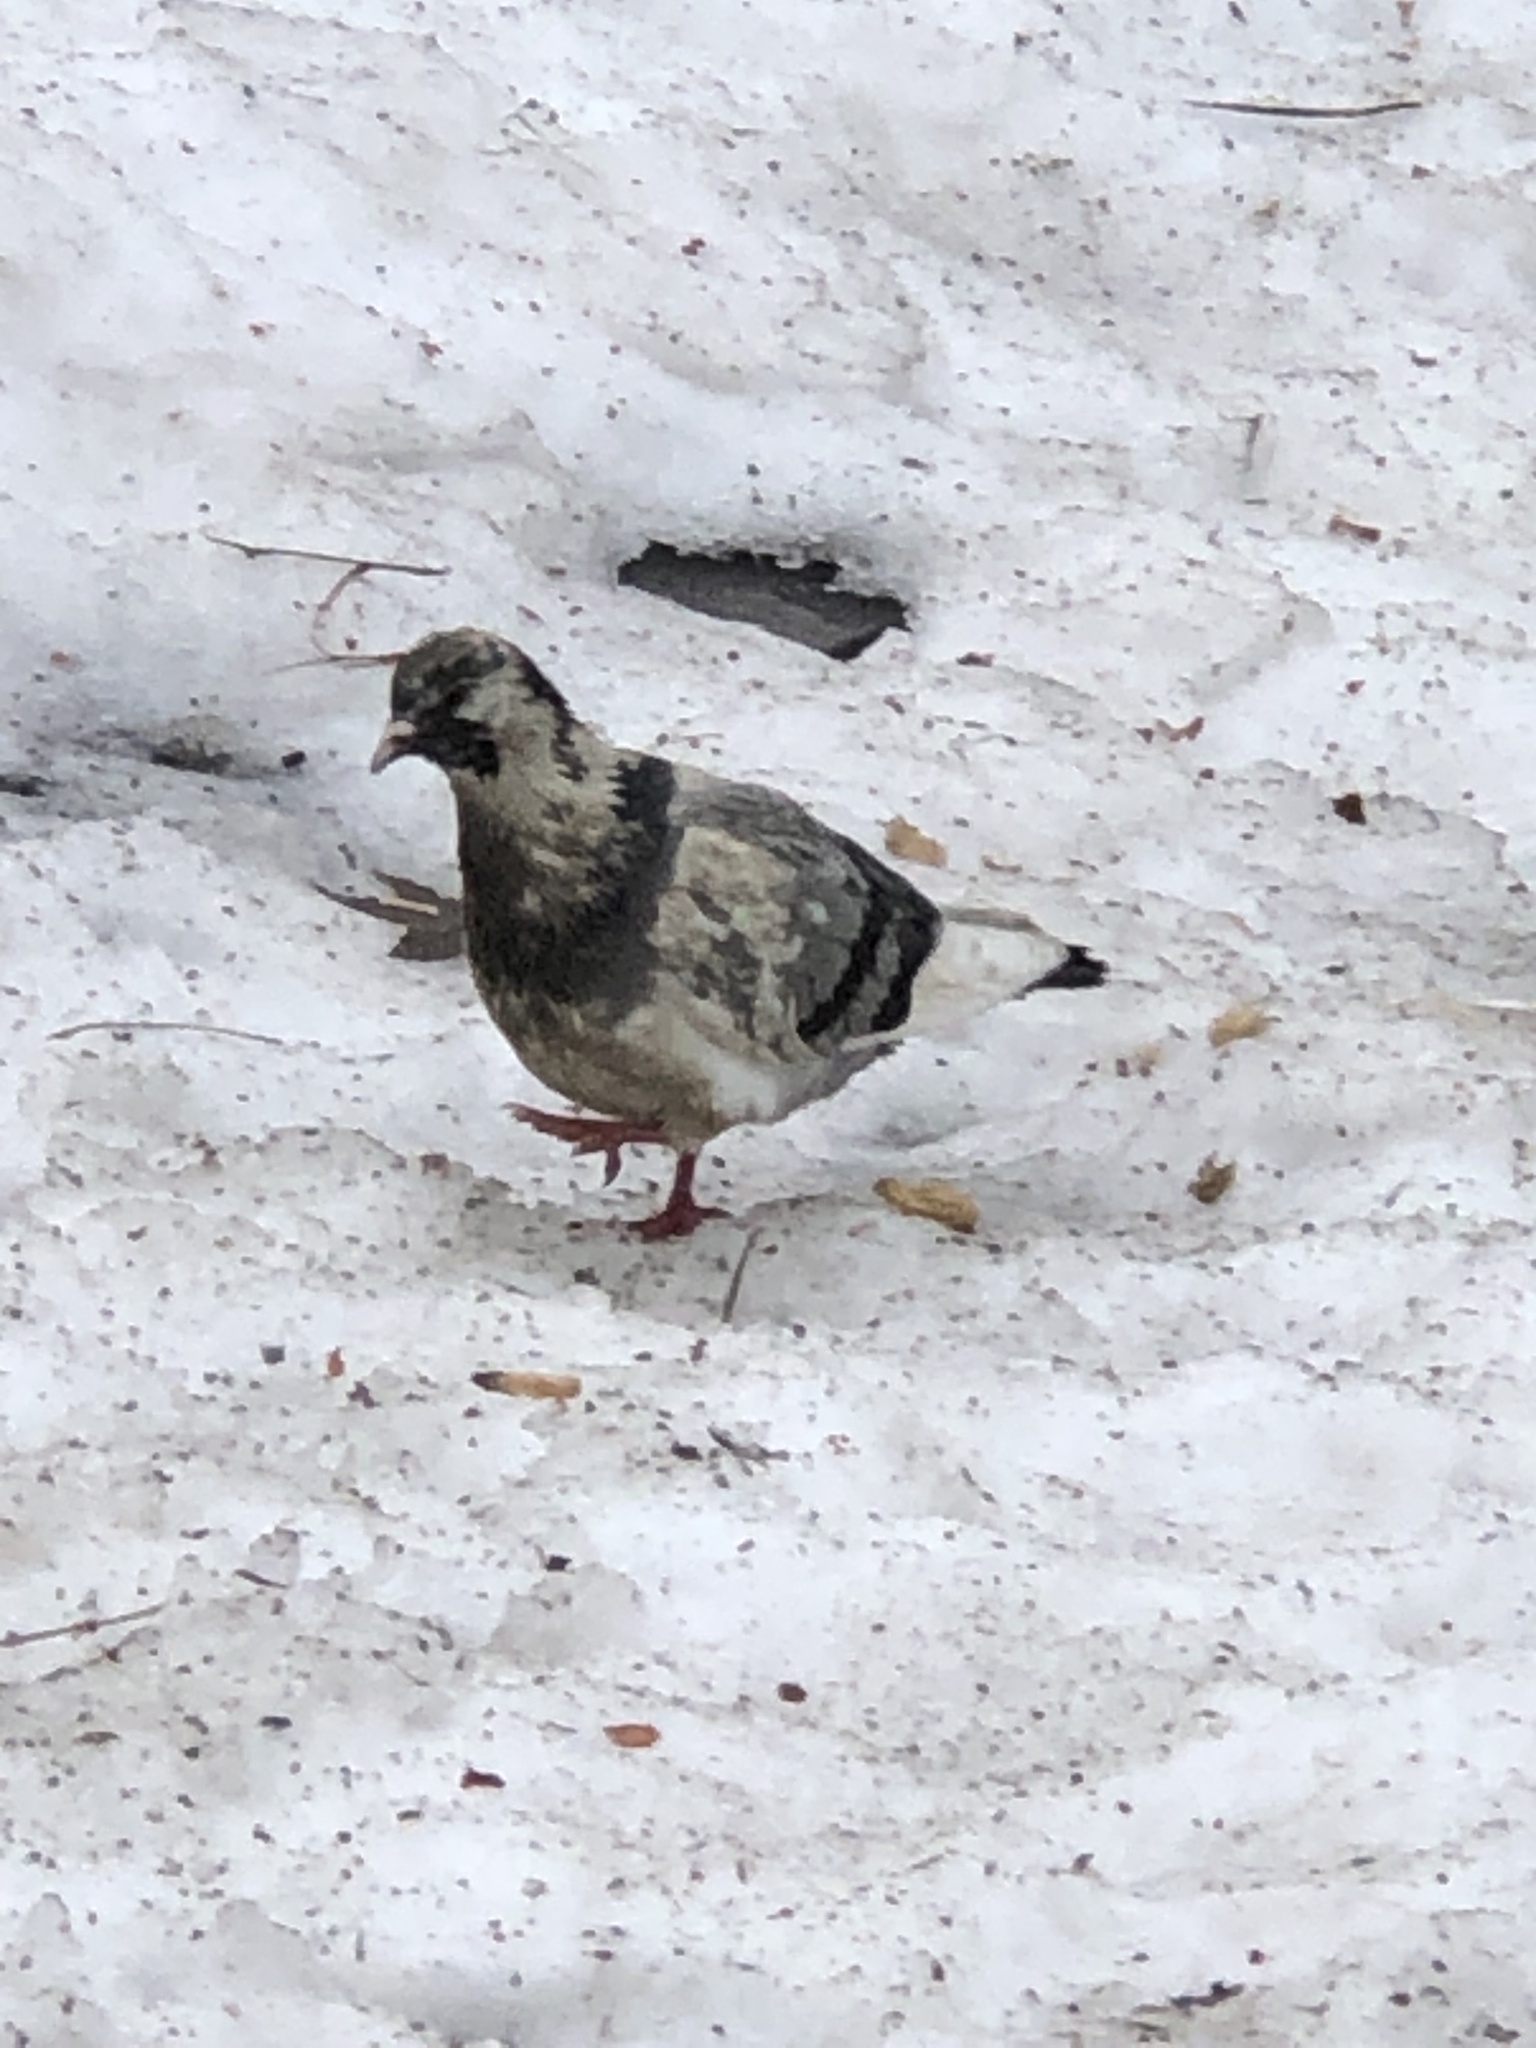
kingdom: Animalia
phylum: Chordata
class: Aves
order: Columbiformes
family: Columbidae
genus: Columba
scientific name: Columba livia
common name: Rock pigeon
